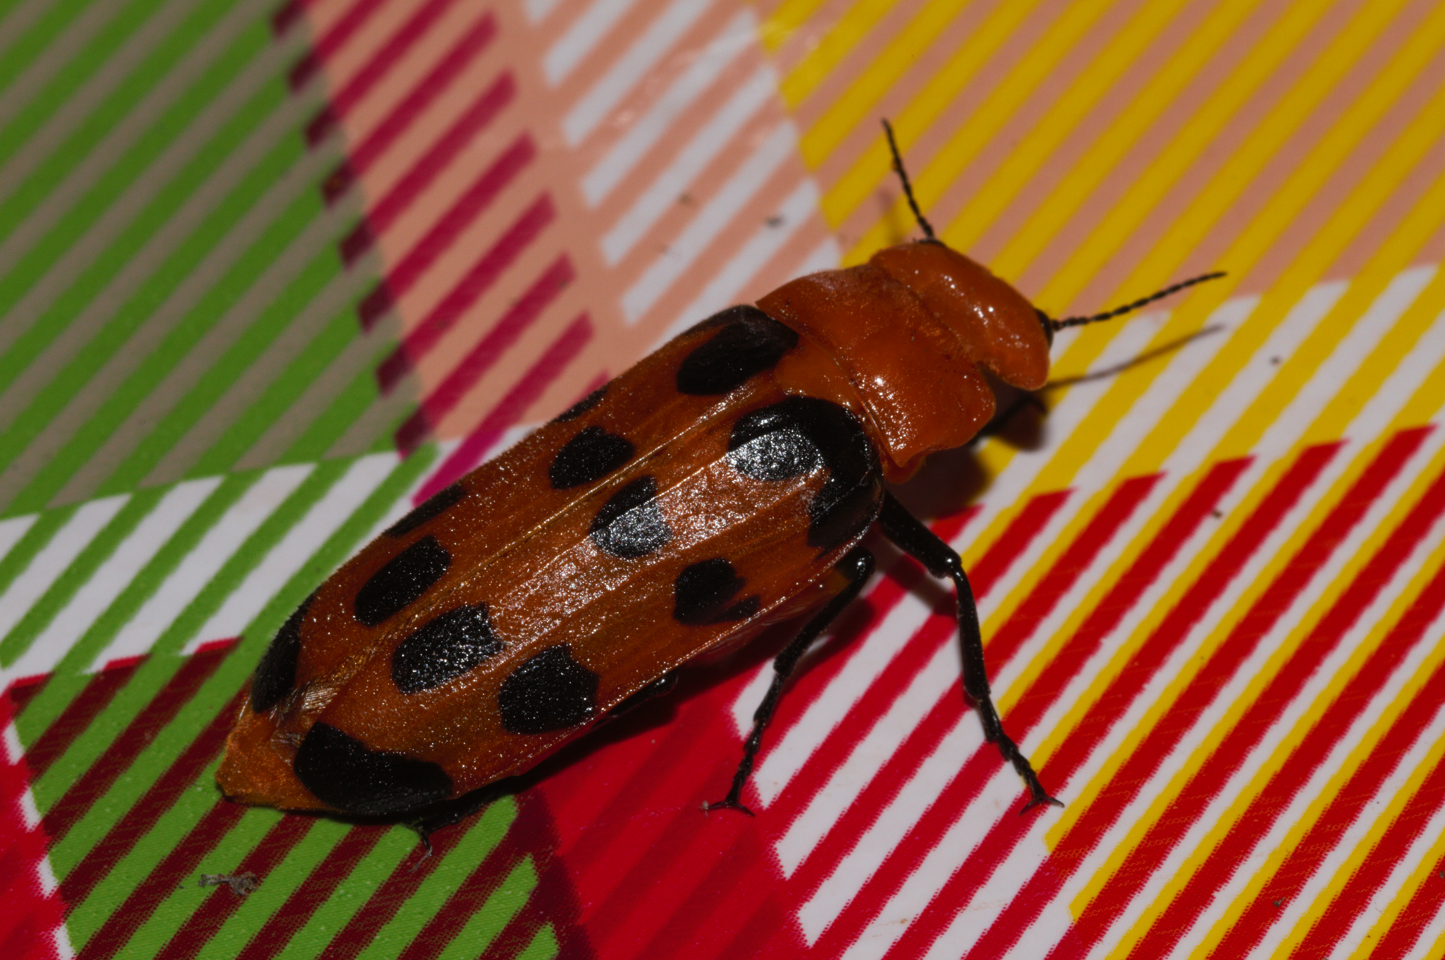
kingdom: Animalia
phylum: Arthropoda
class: Insecta
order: Coleoptera
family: Meloidae
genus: Cissites
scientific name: Cissites maculata
